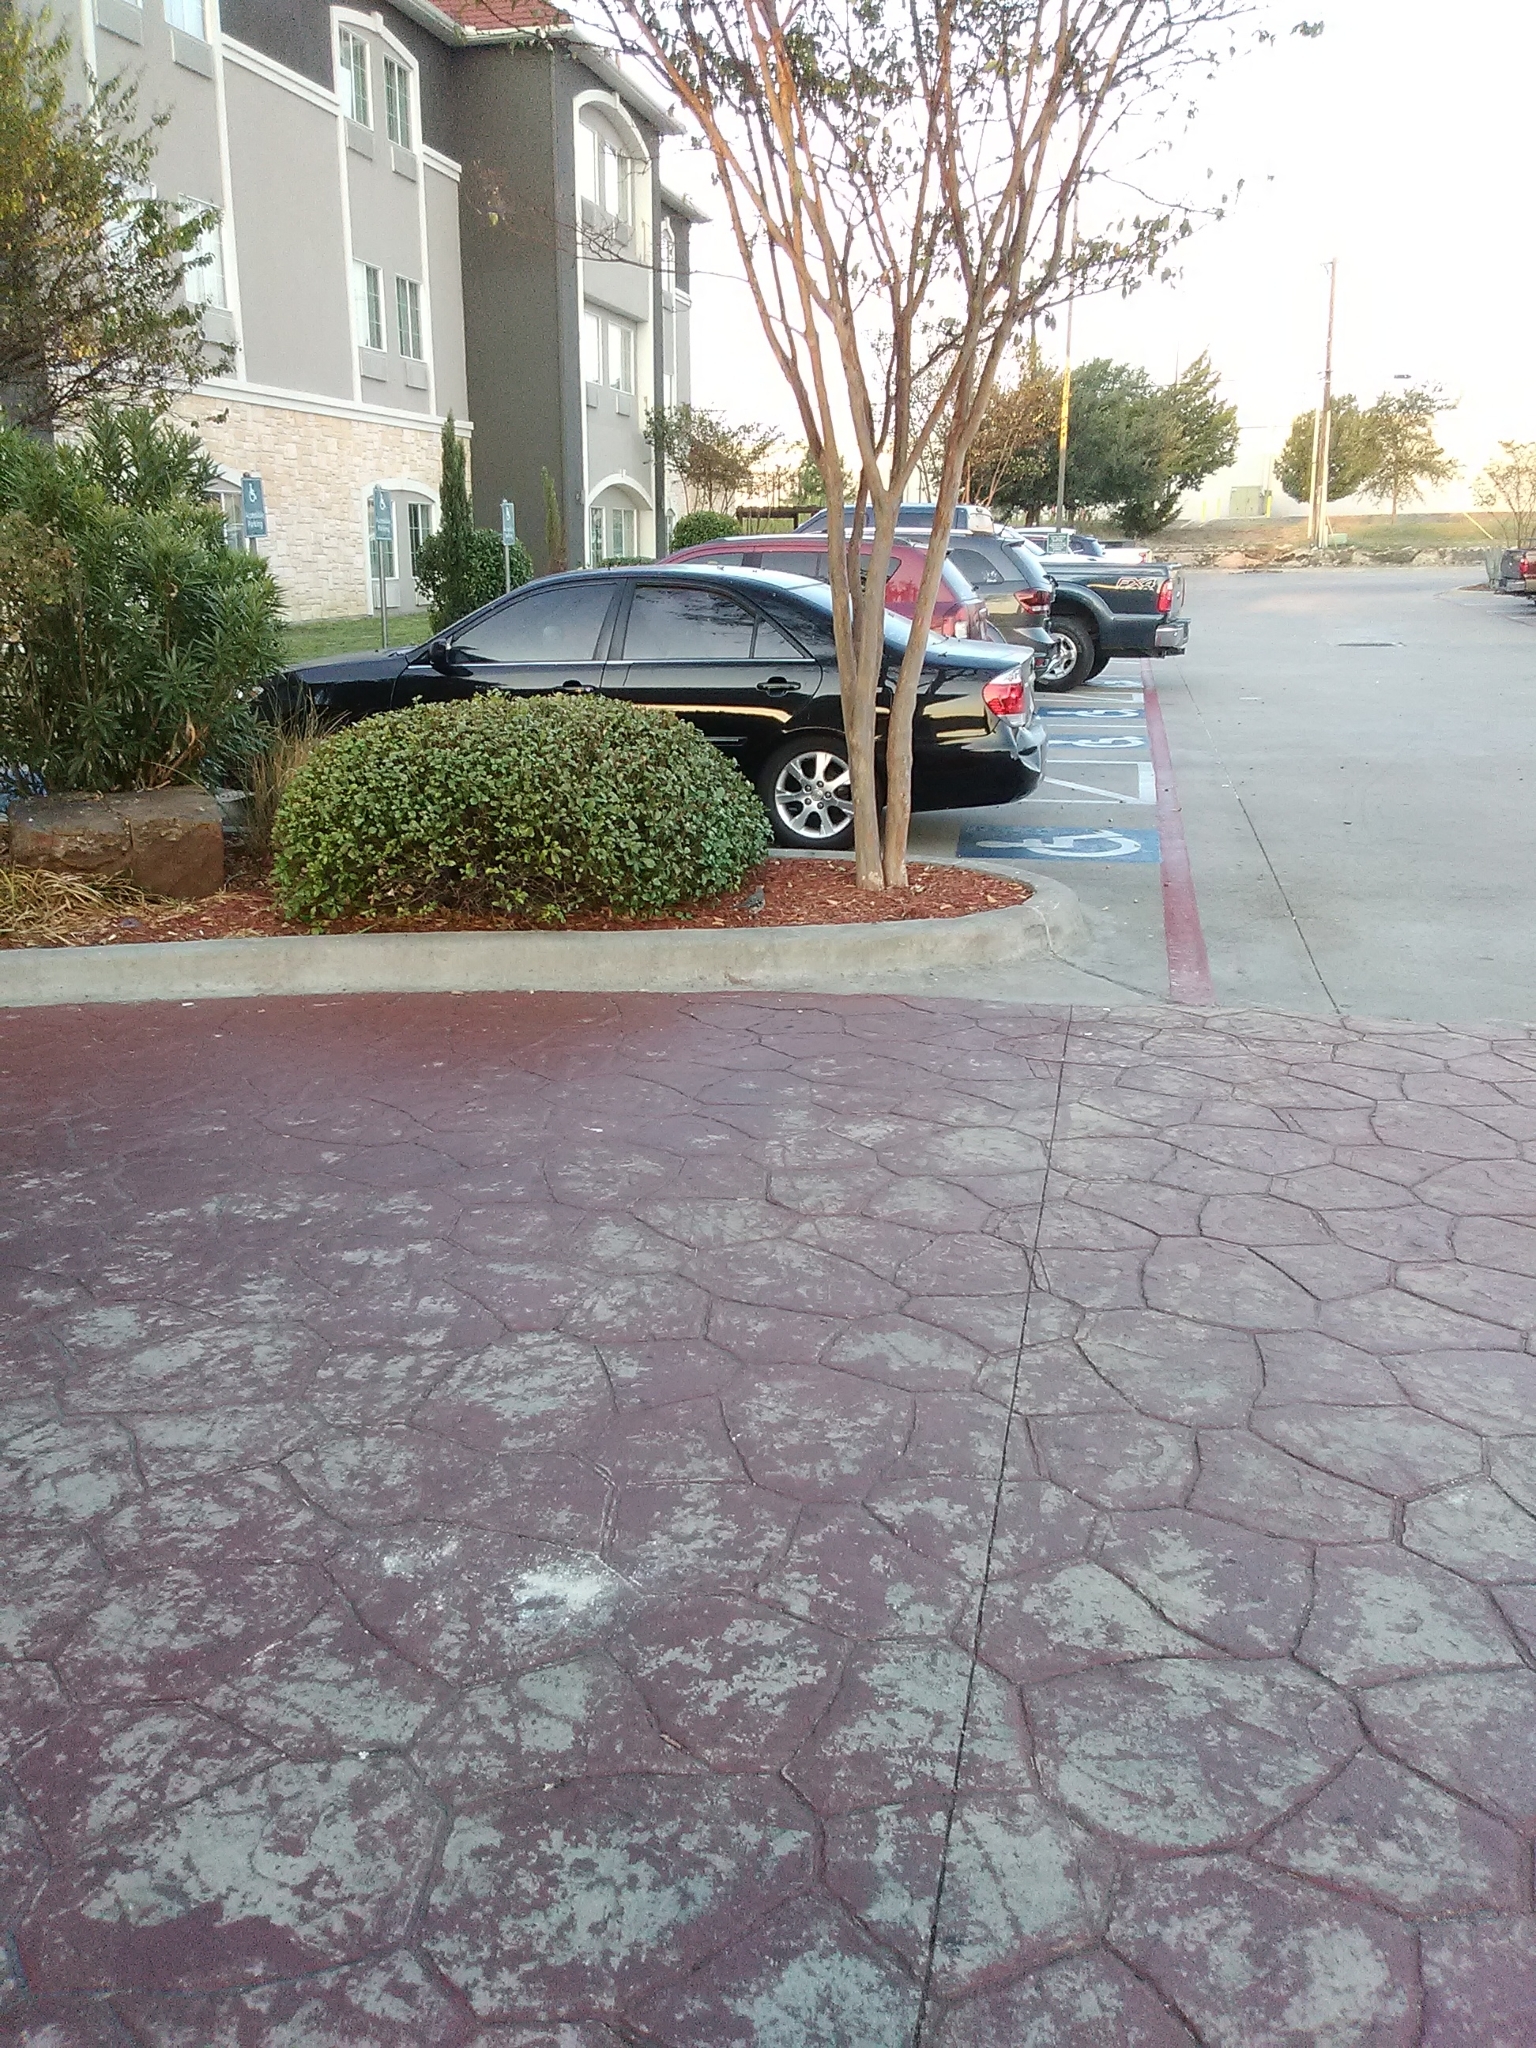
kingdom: Animalia
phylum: Chordata
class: Aves
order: Passeriformes
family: Mimidae
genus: Mimus
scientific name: Mimus polyglottos
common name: Northern mockingbird
